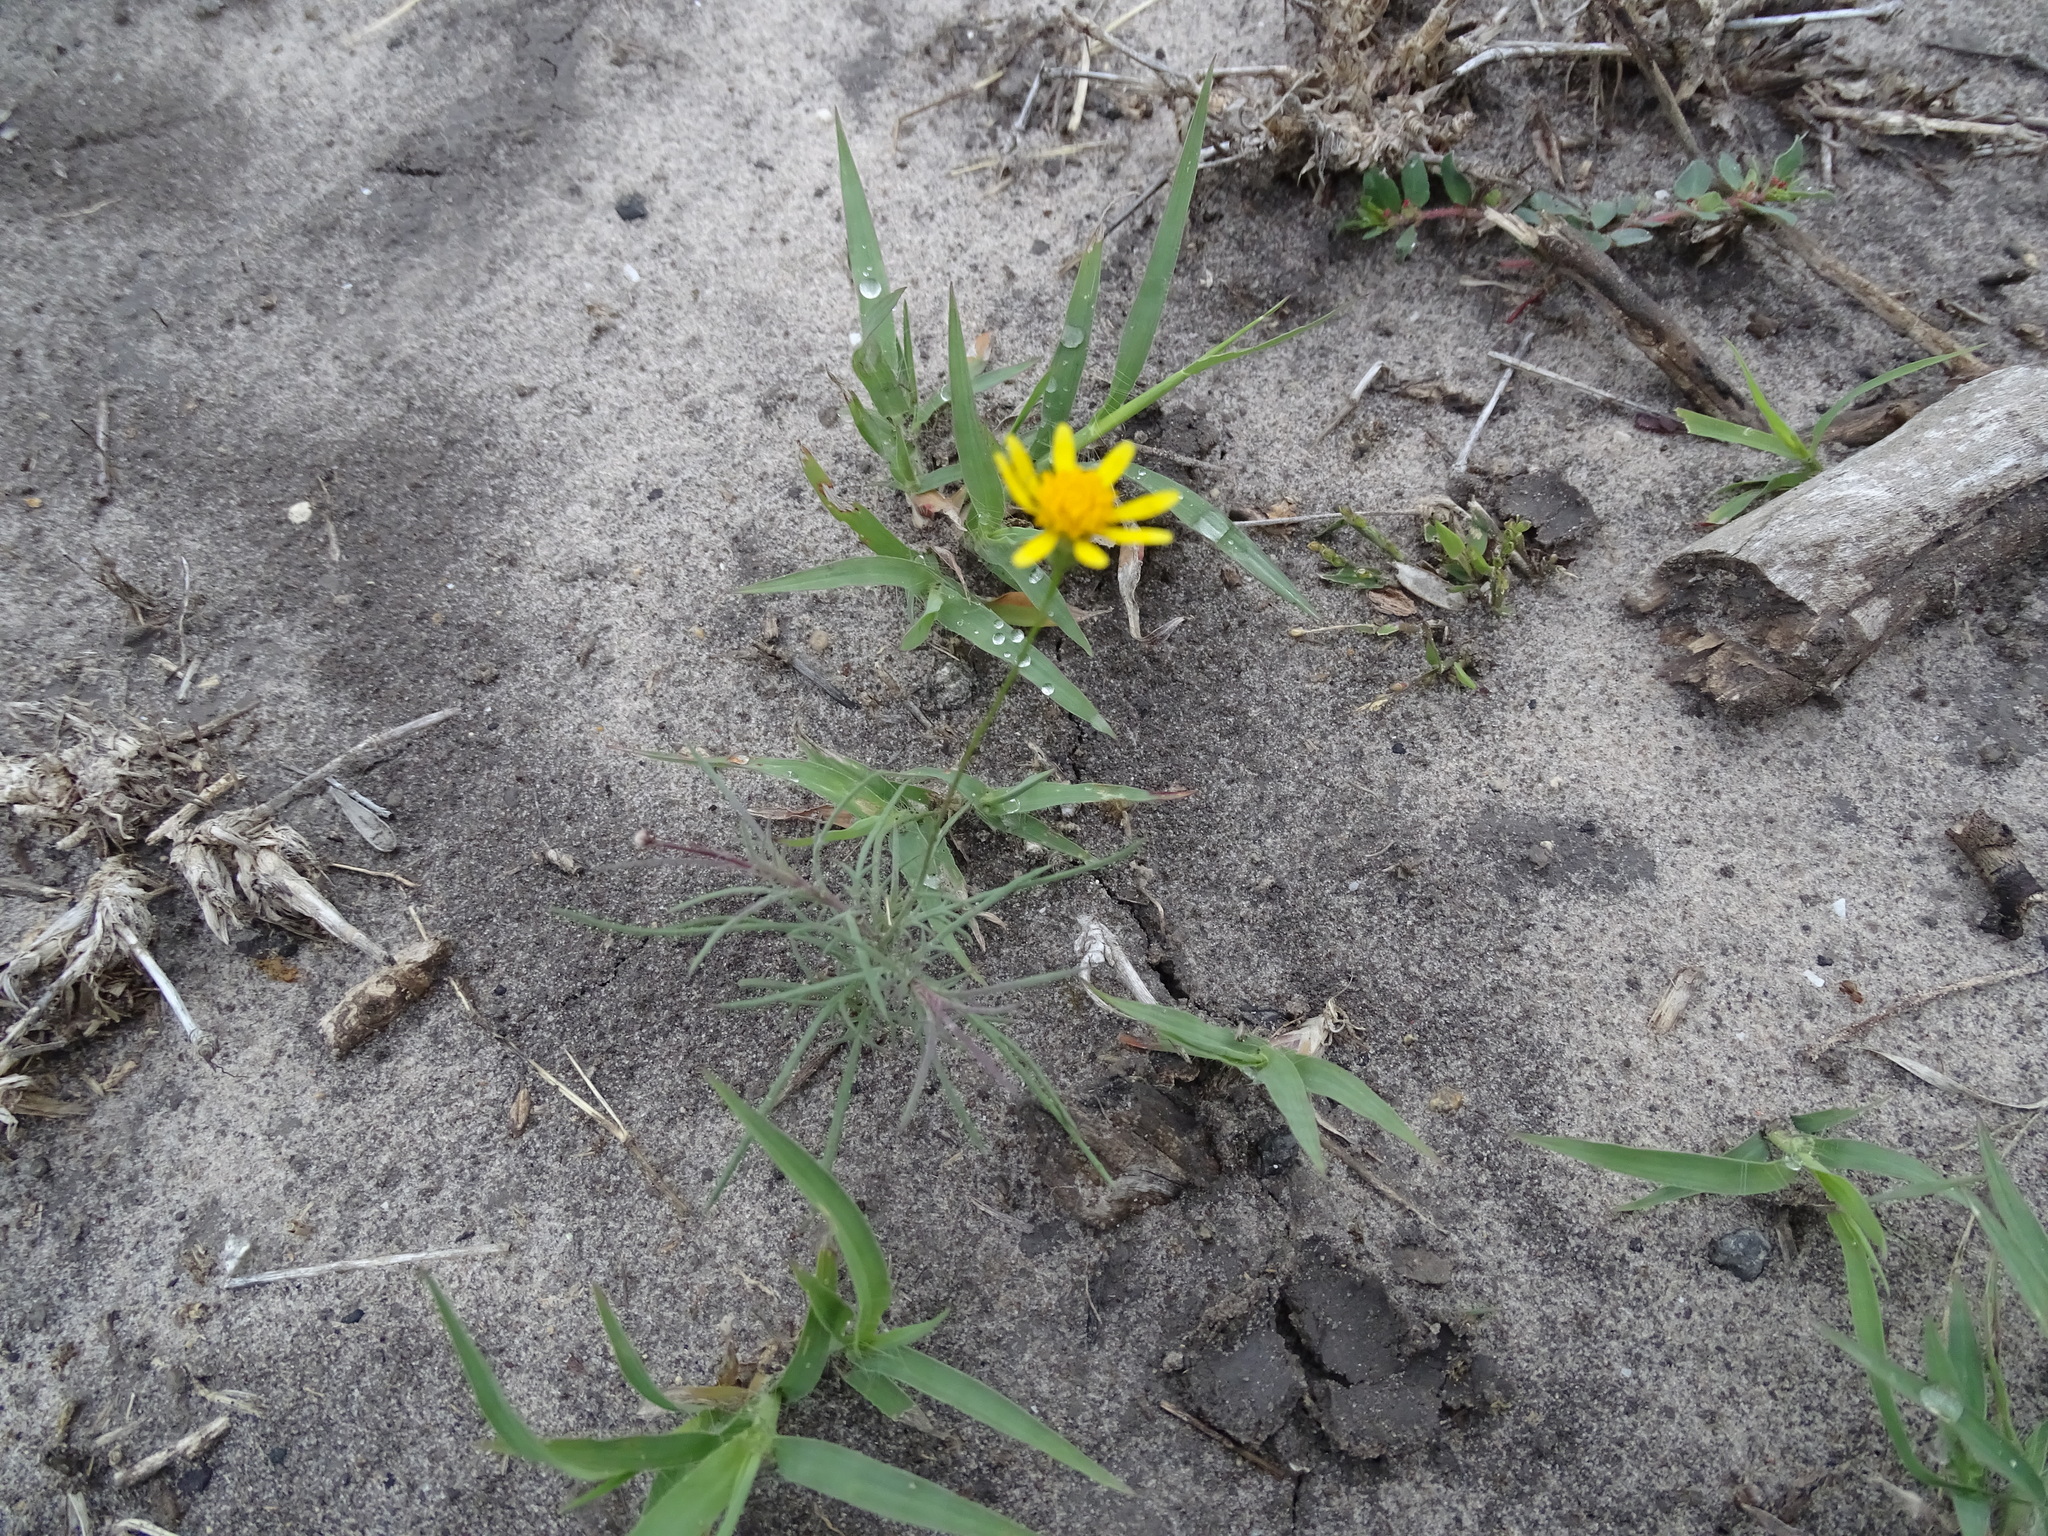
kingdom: Plantae
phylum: Tracheophyta
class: Magnoliopsida
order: Asterales
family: Asteraceae
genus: Thymophylla
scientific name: Thymophylla pentachaeta
